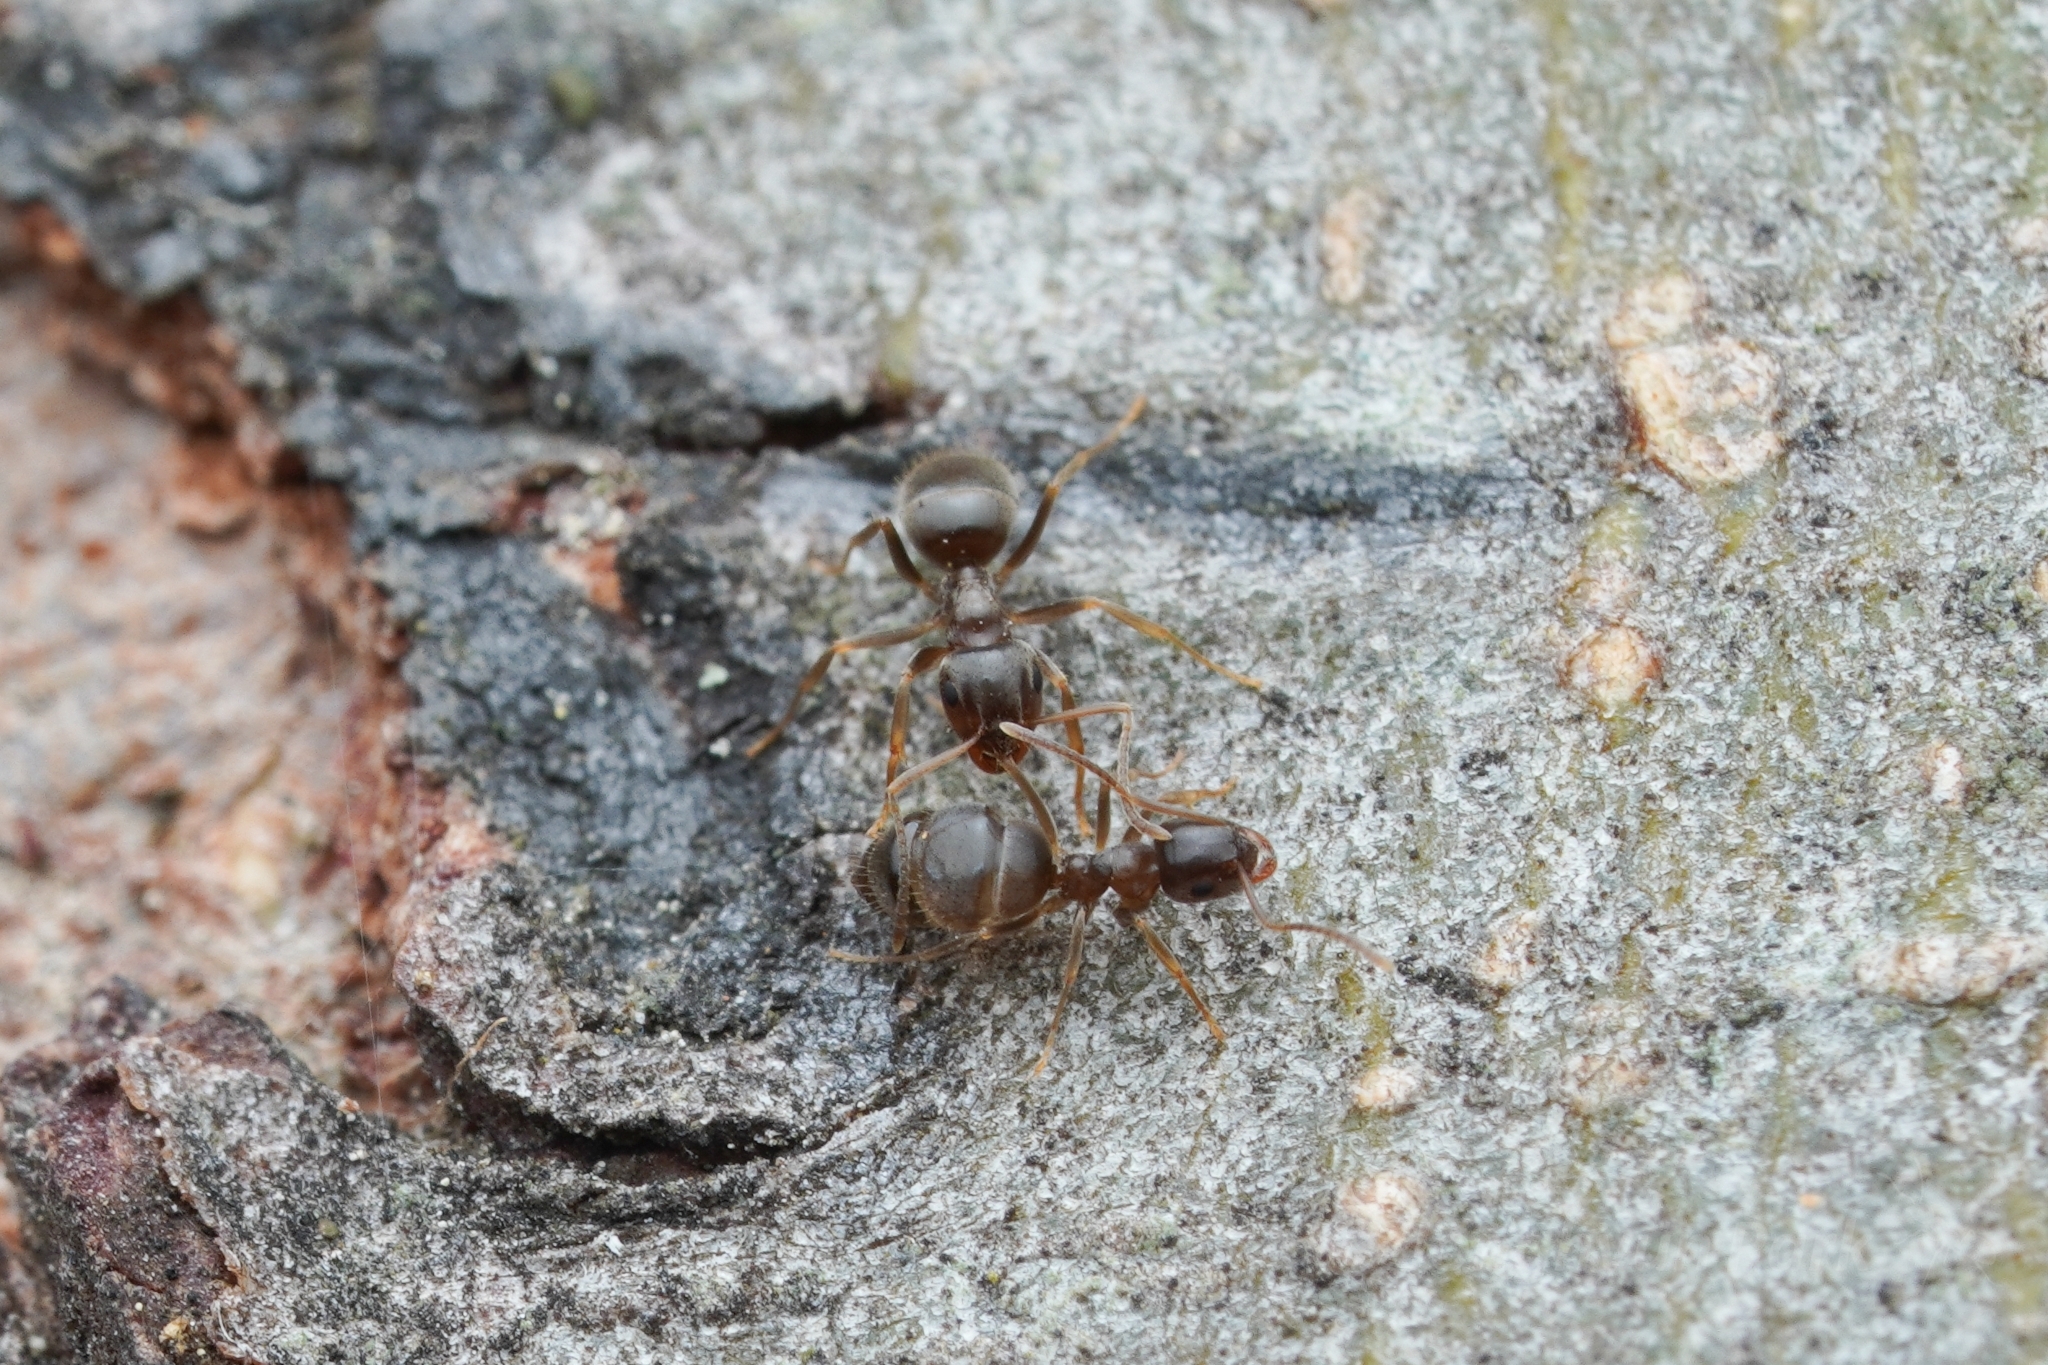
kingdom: Animalia
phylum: Arthropoda
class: Insecta
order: Hymenoptera
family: Formicidae
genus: Lasius
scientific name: Lasius americanus
